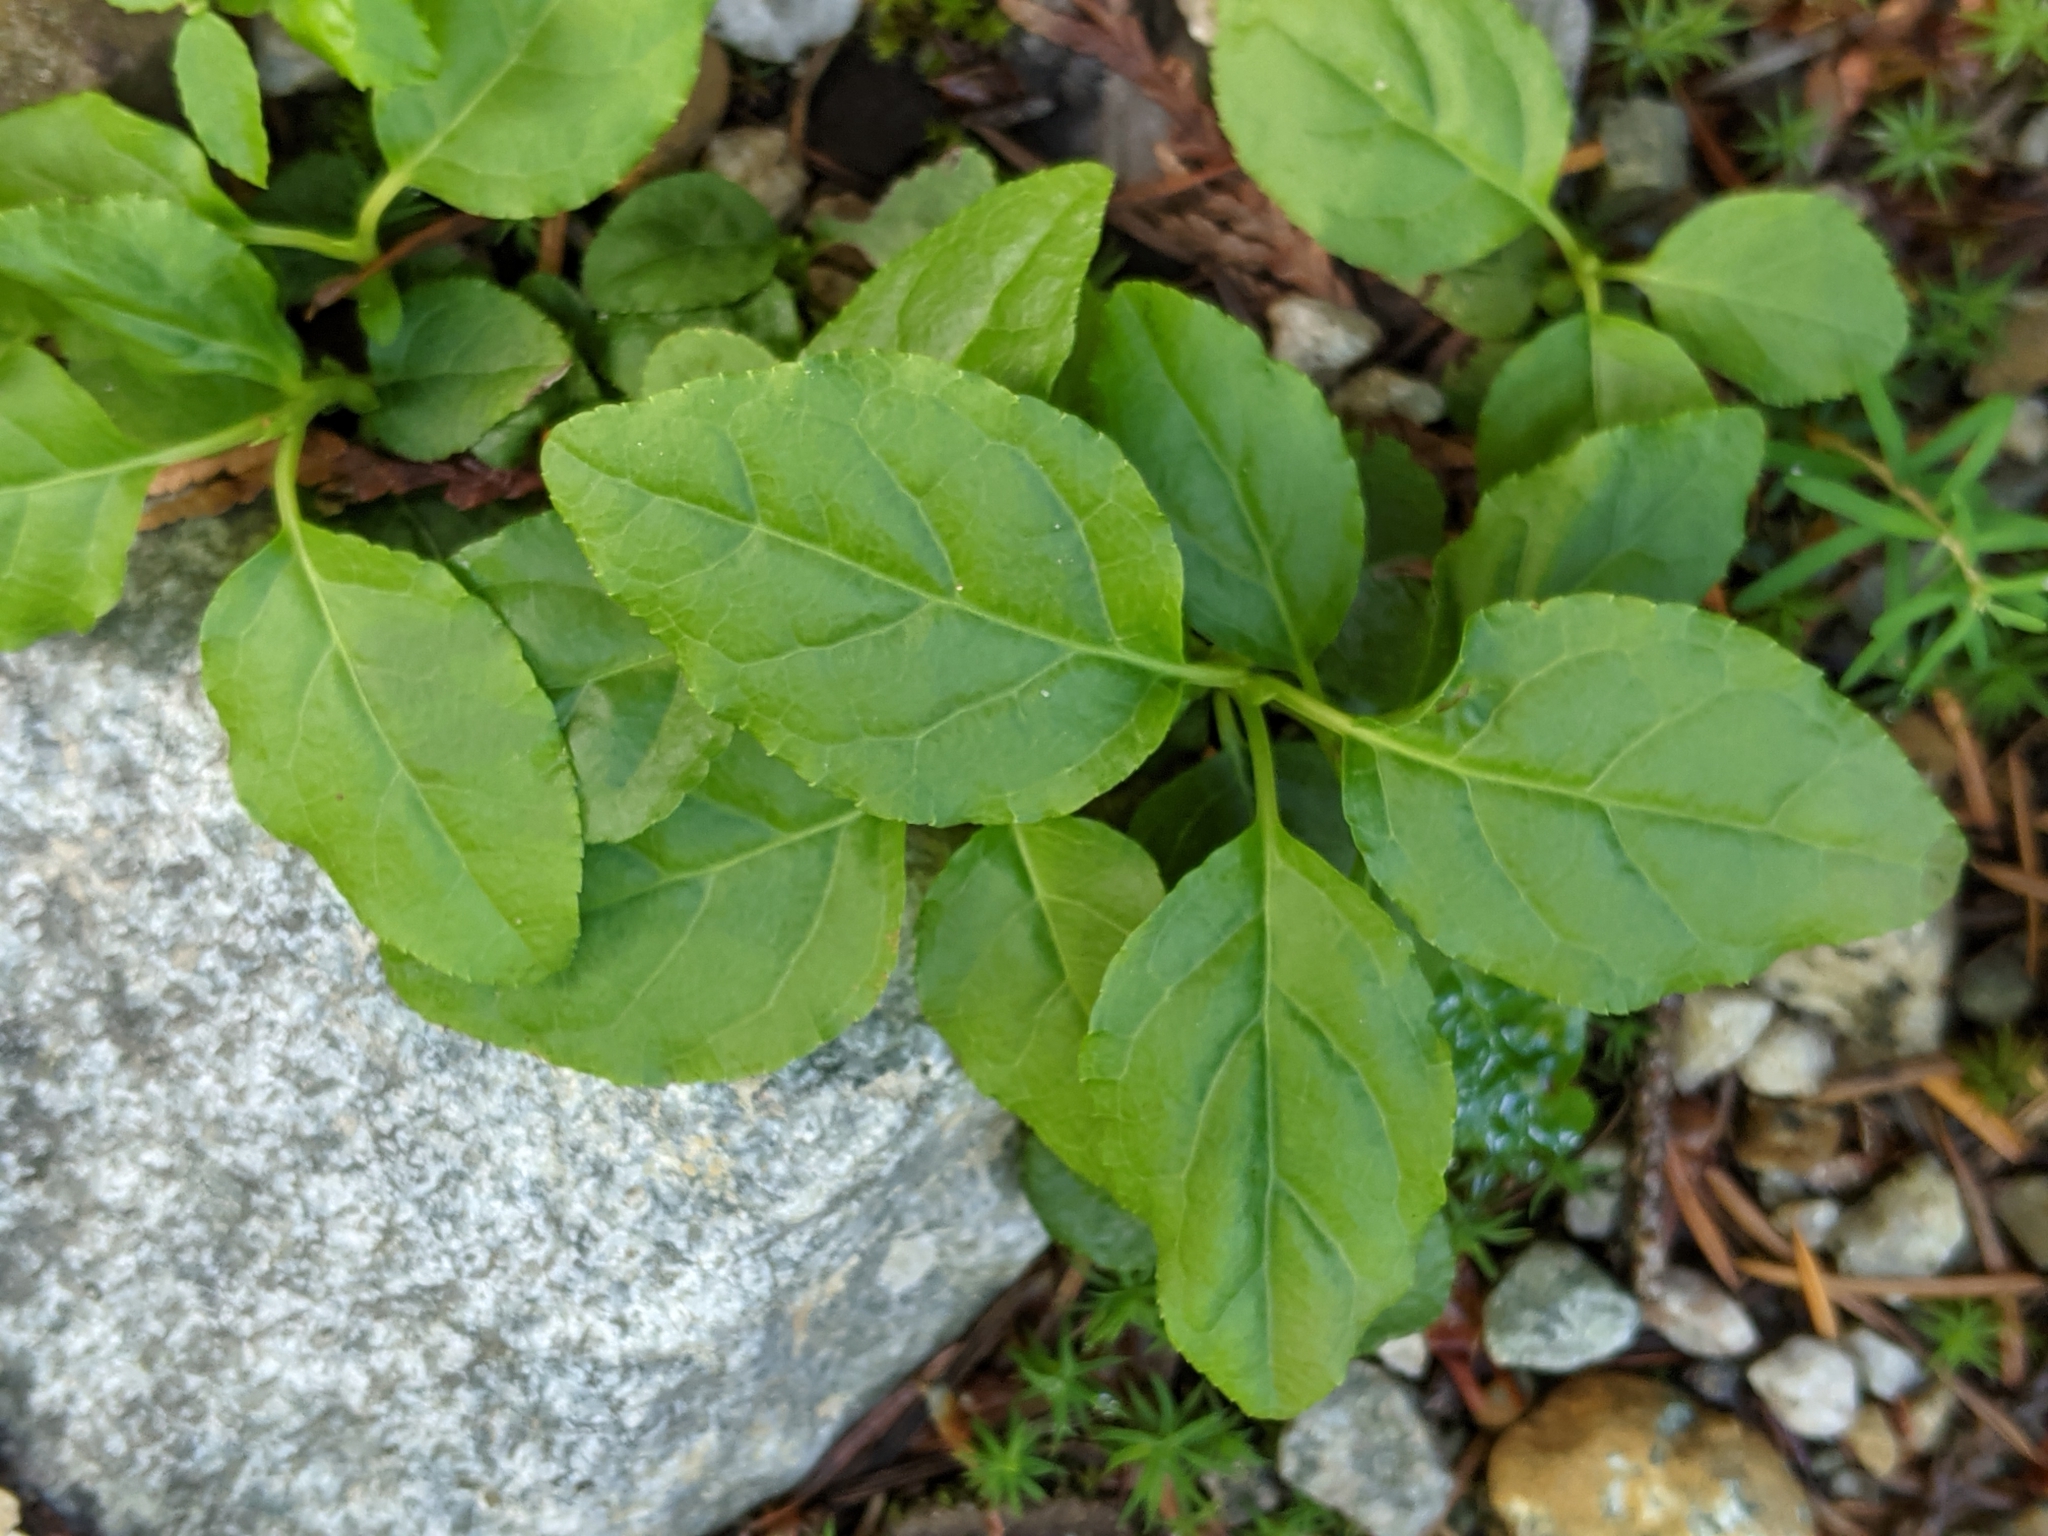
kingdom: Plantae
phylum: Tracheophyta
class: Magnoliopsida
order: Ericales
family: Ericaceae
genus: Orthilia
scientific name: Orthilia secunda
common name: One-sided orthilia
